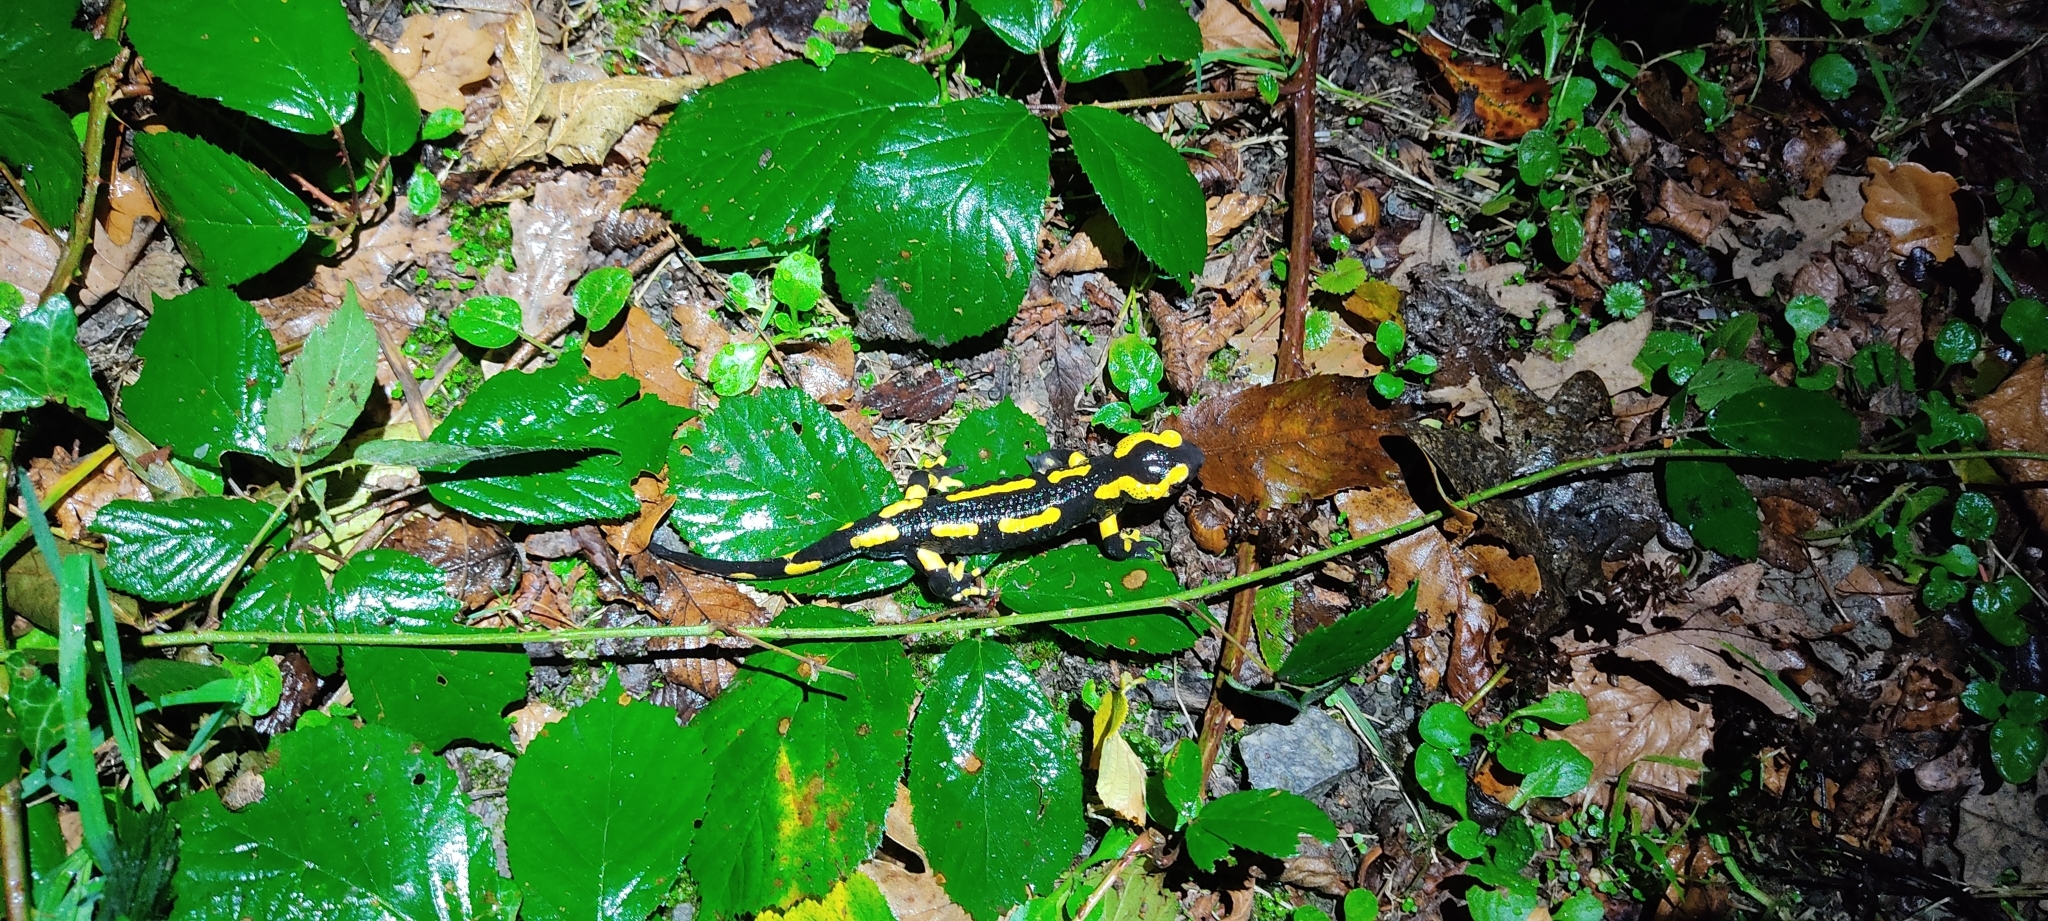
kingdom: Animalia
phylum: Chordata
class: Amphibia
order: Caudata
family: Salamandridae
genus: Salamandra
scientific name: Salamandra salamandra
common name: Fire salamander
